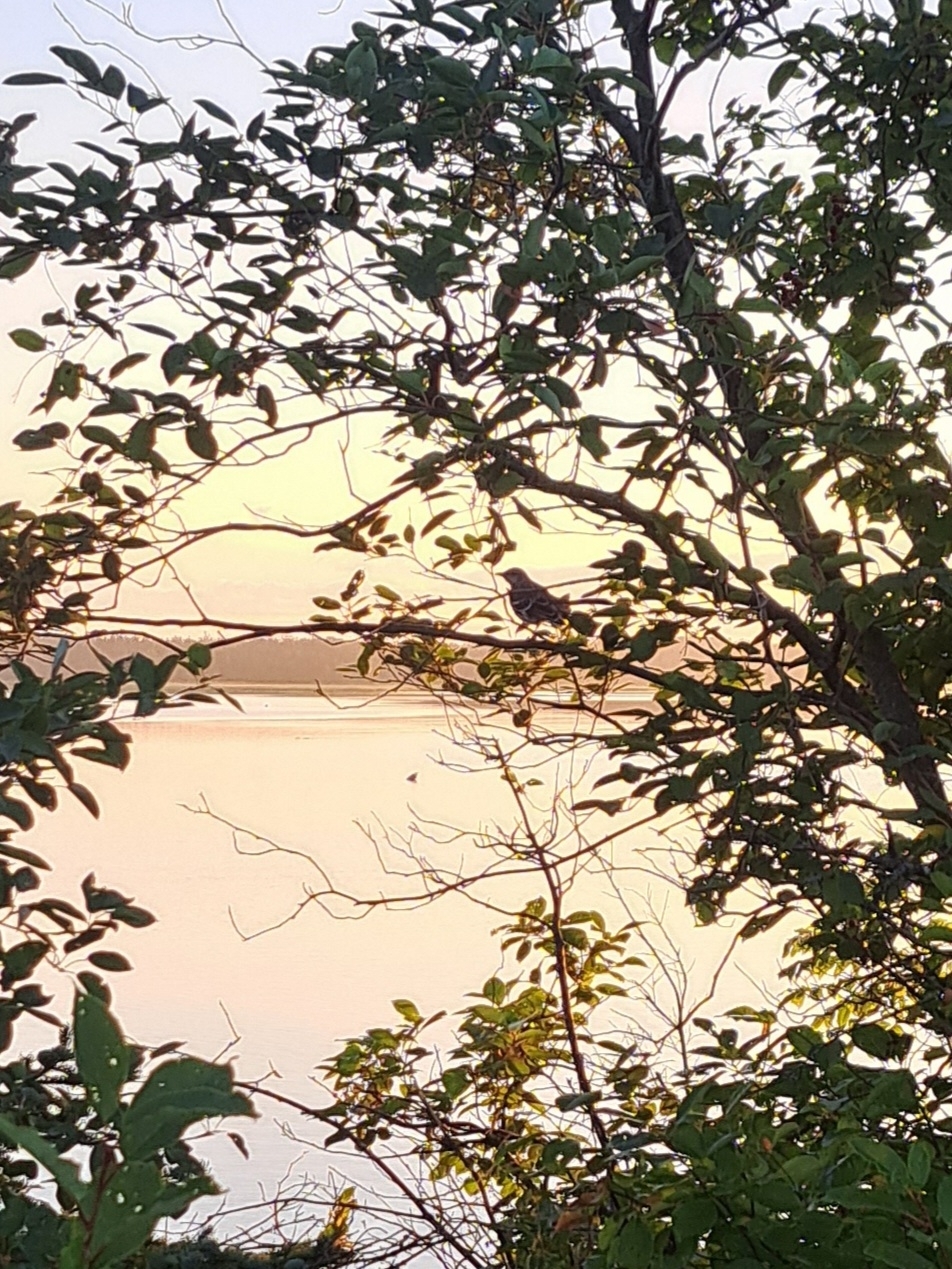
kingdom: Animalia
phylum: Chordata
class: Aves
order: Passeriformes
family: Mimidae
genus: Mimus
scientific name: Mimus polyglottos
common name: Northern mockingbird
